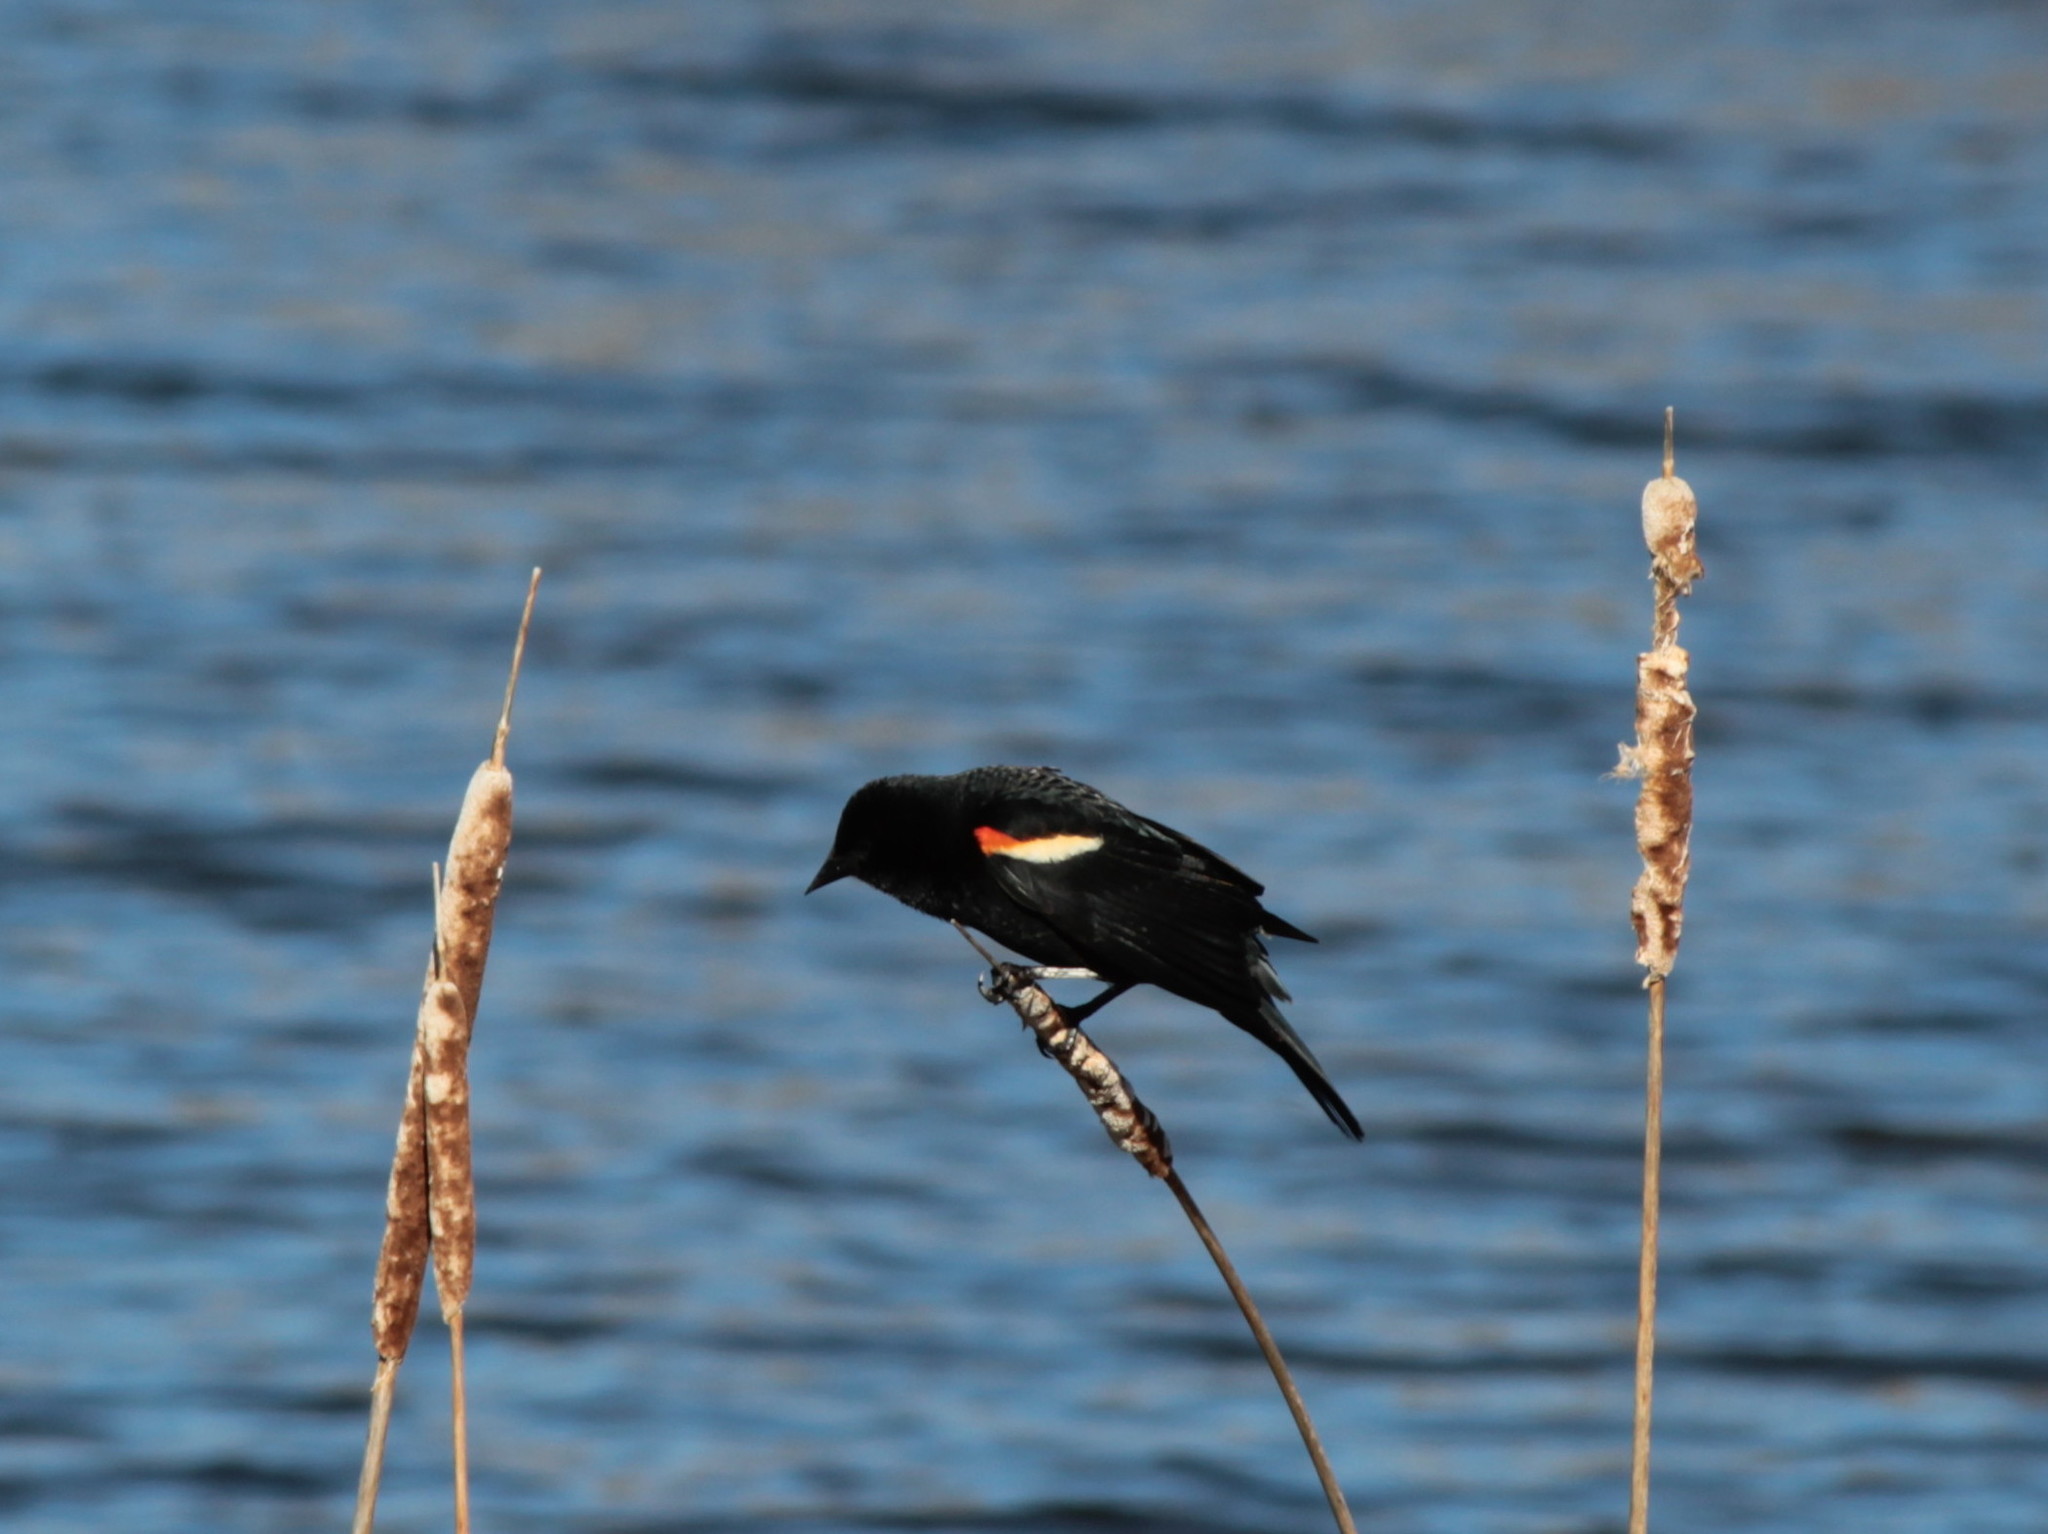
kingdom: Animalia
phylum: Chordata
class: Aves
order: Passeriformes
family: Icteridae
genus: Agelaius
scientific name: Agelaius phoeniceus
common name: Red-winged blackbird
